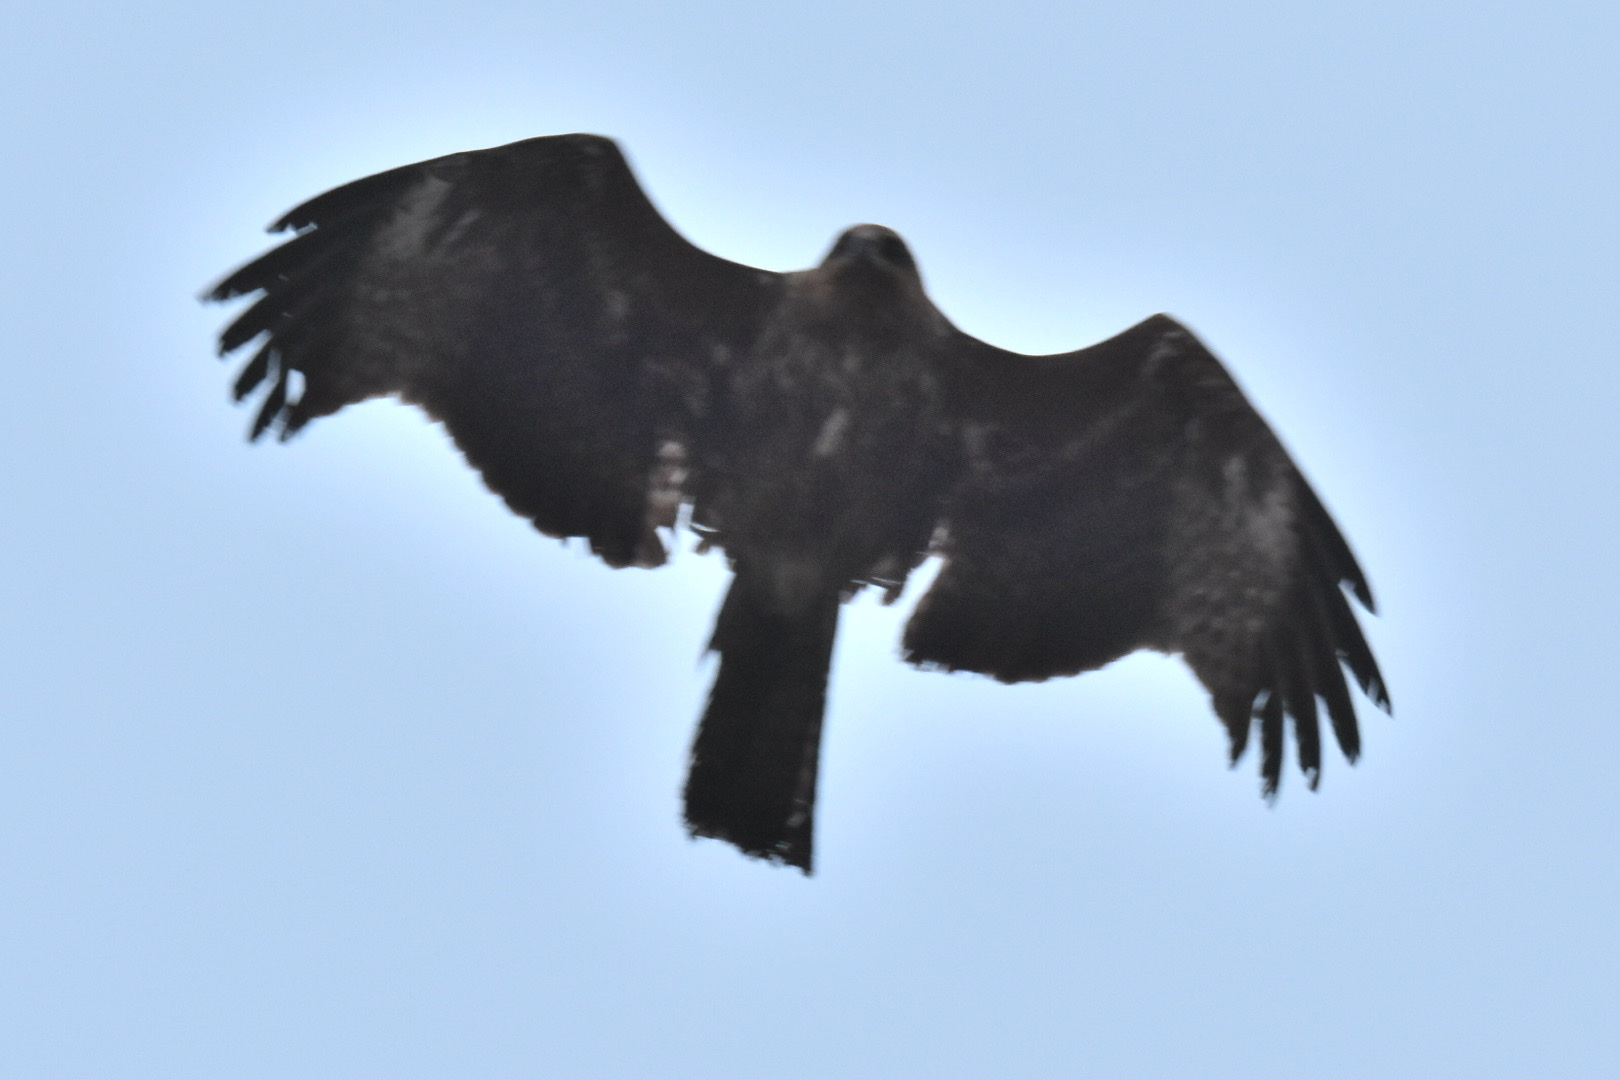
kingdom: Animalia
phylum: Chordata
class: Aves
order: Accipitriformes
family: Accipitridae
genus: Milvus
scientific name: Milvus migrans
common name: Black kite
